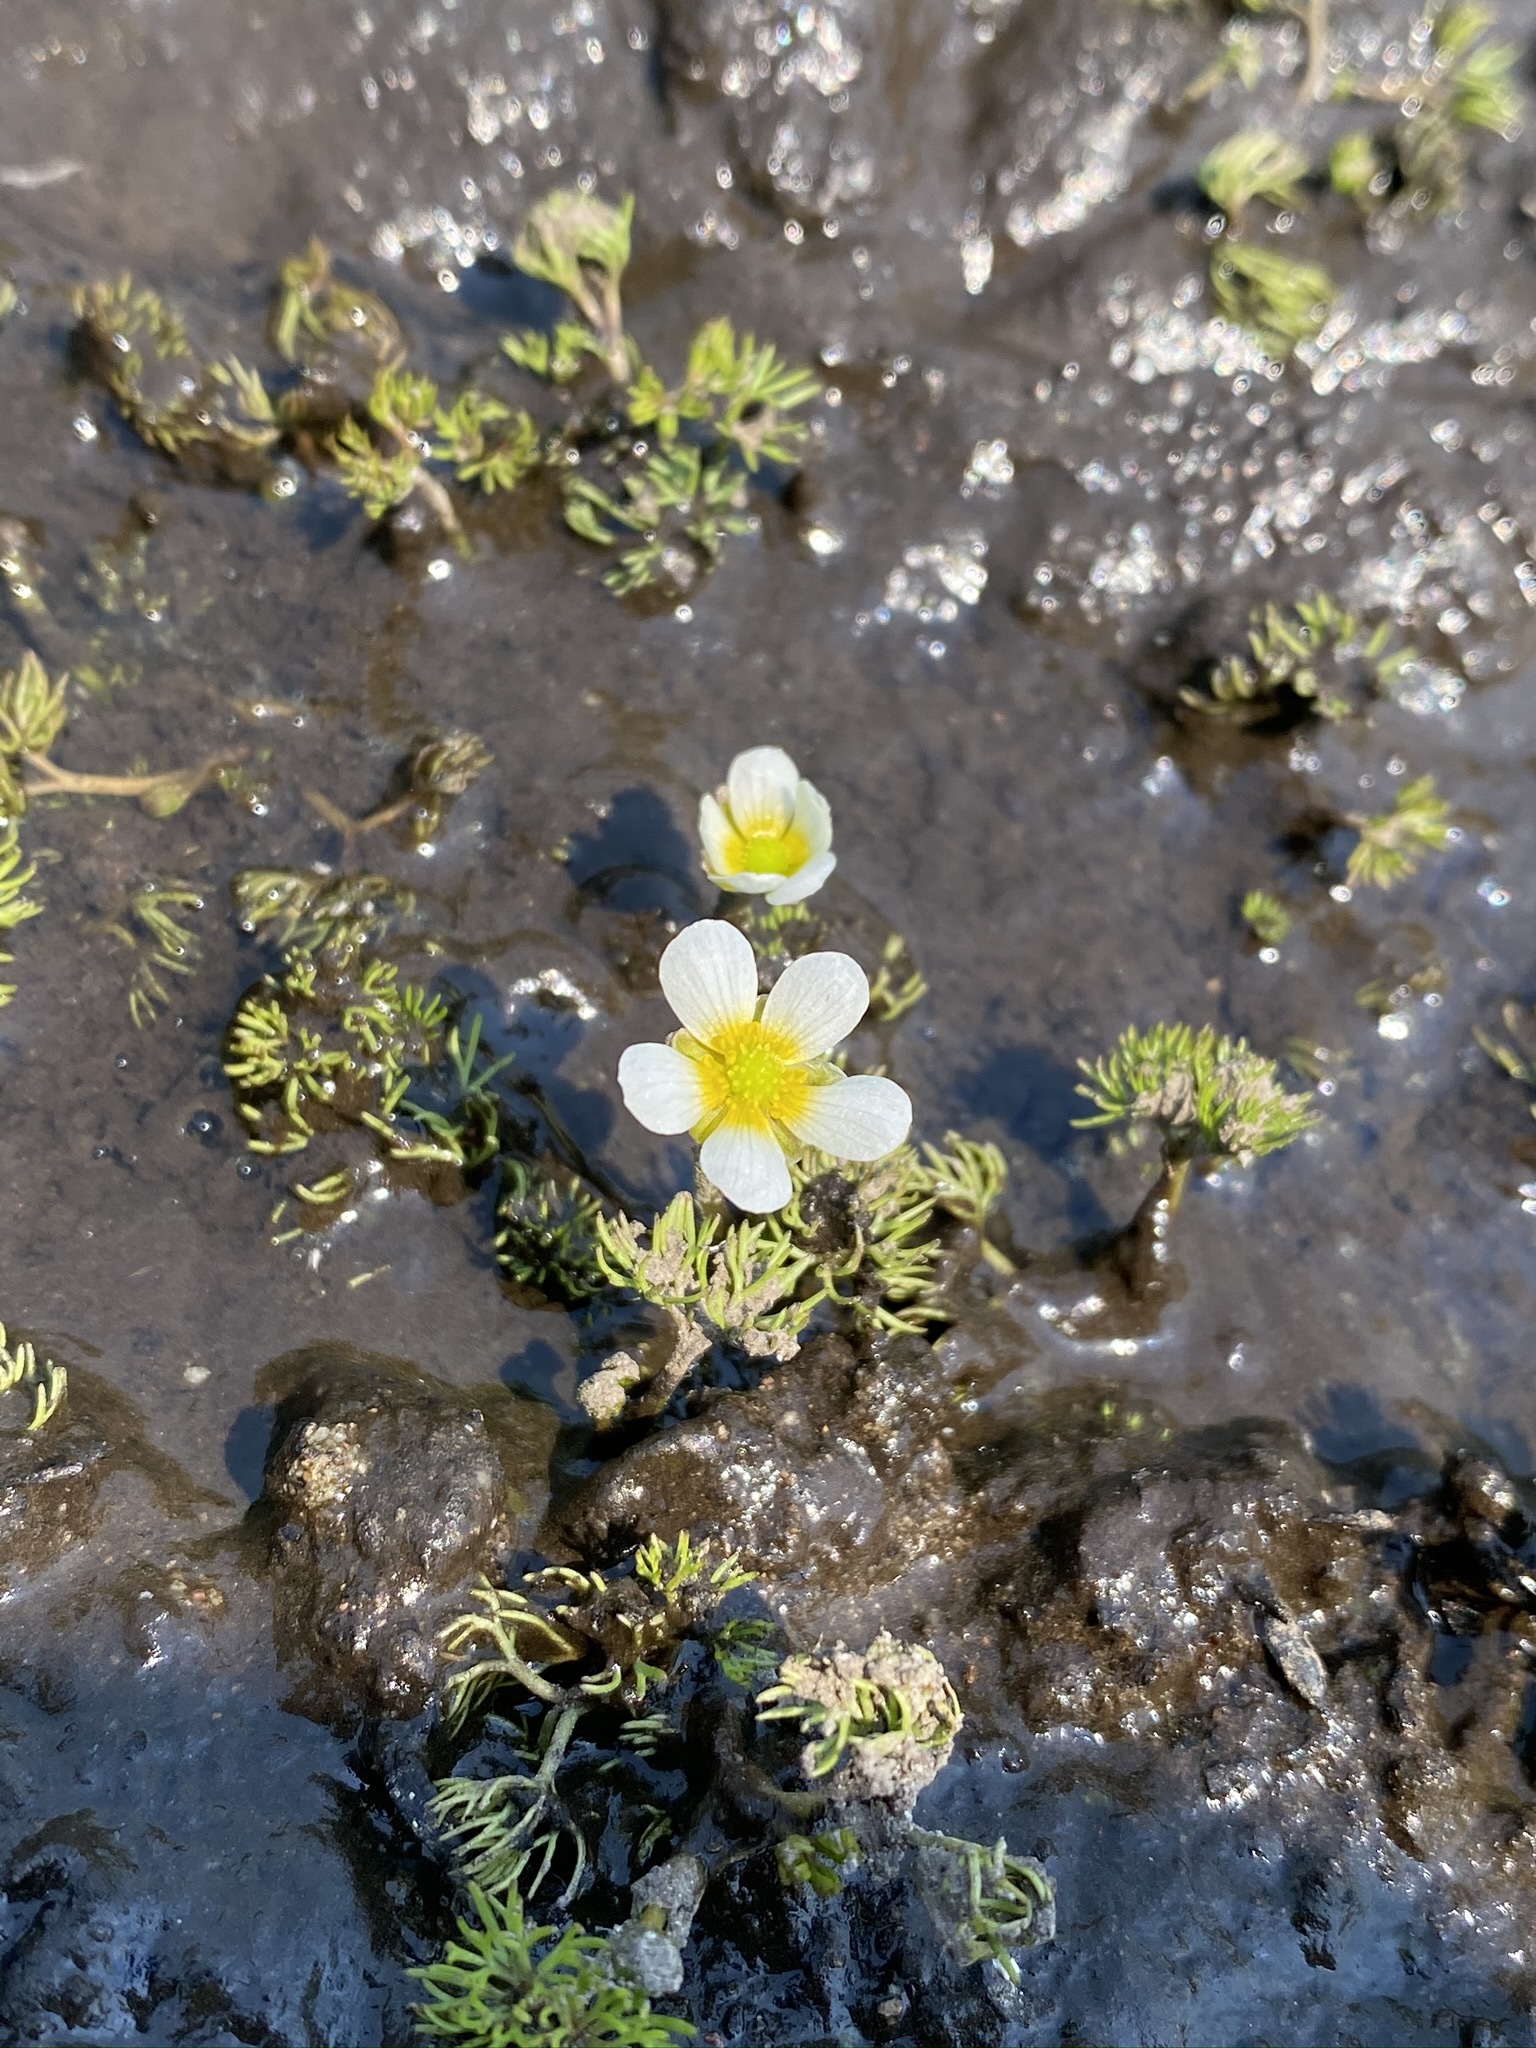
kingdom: Plantae
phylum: Tracheophyta
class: Magnoliopsida
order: Ranunculales
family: Ranunculaceae
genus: Ranunculus
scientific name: Ranunculus trichophyllus
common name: Thread-leaved water-crowfoot
